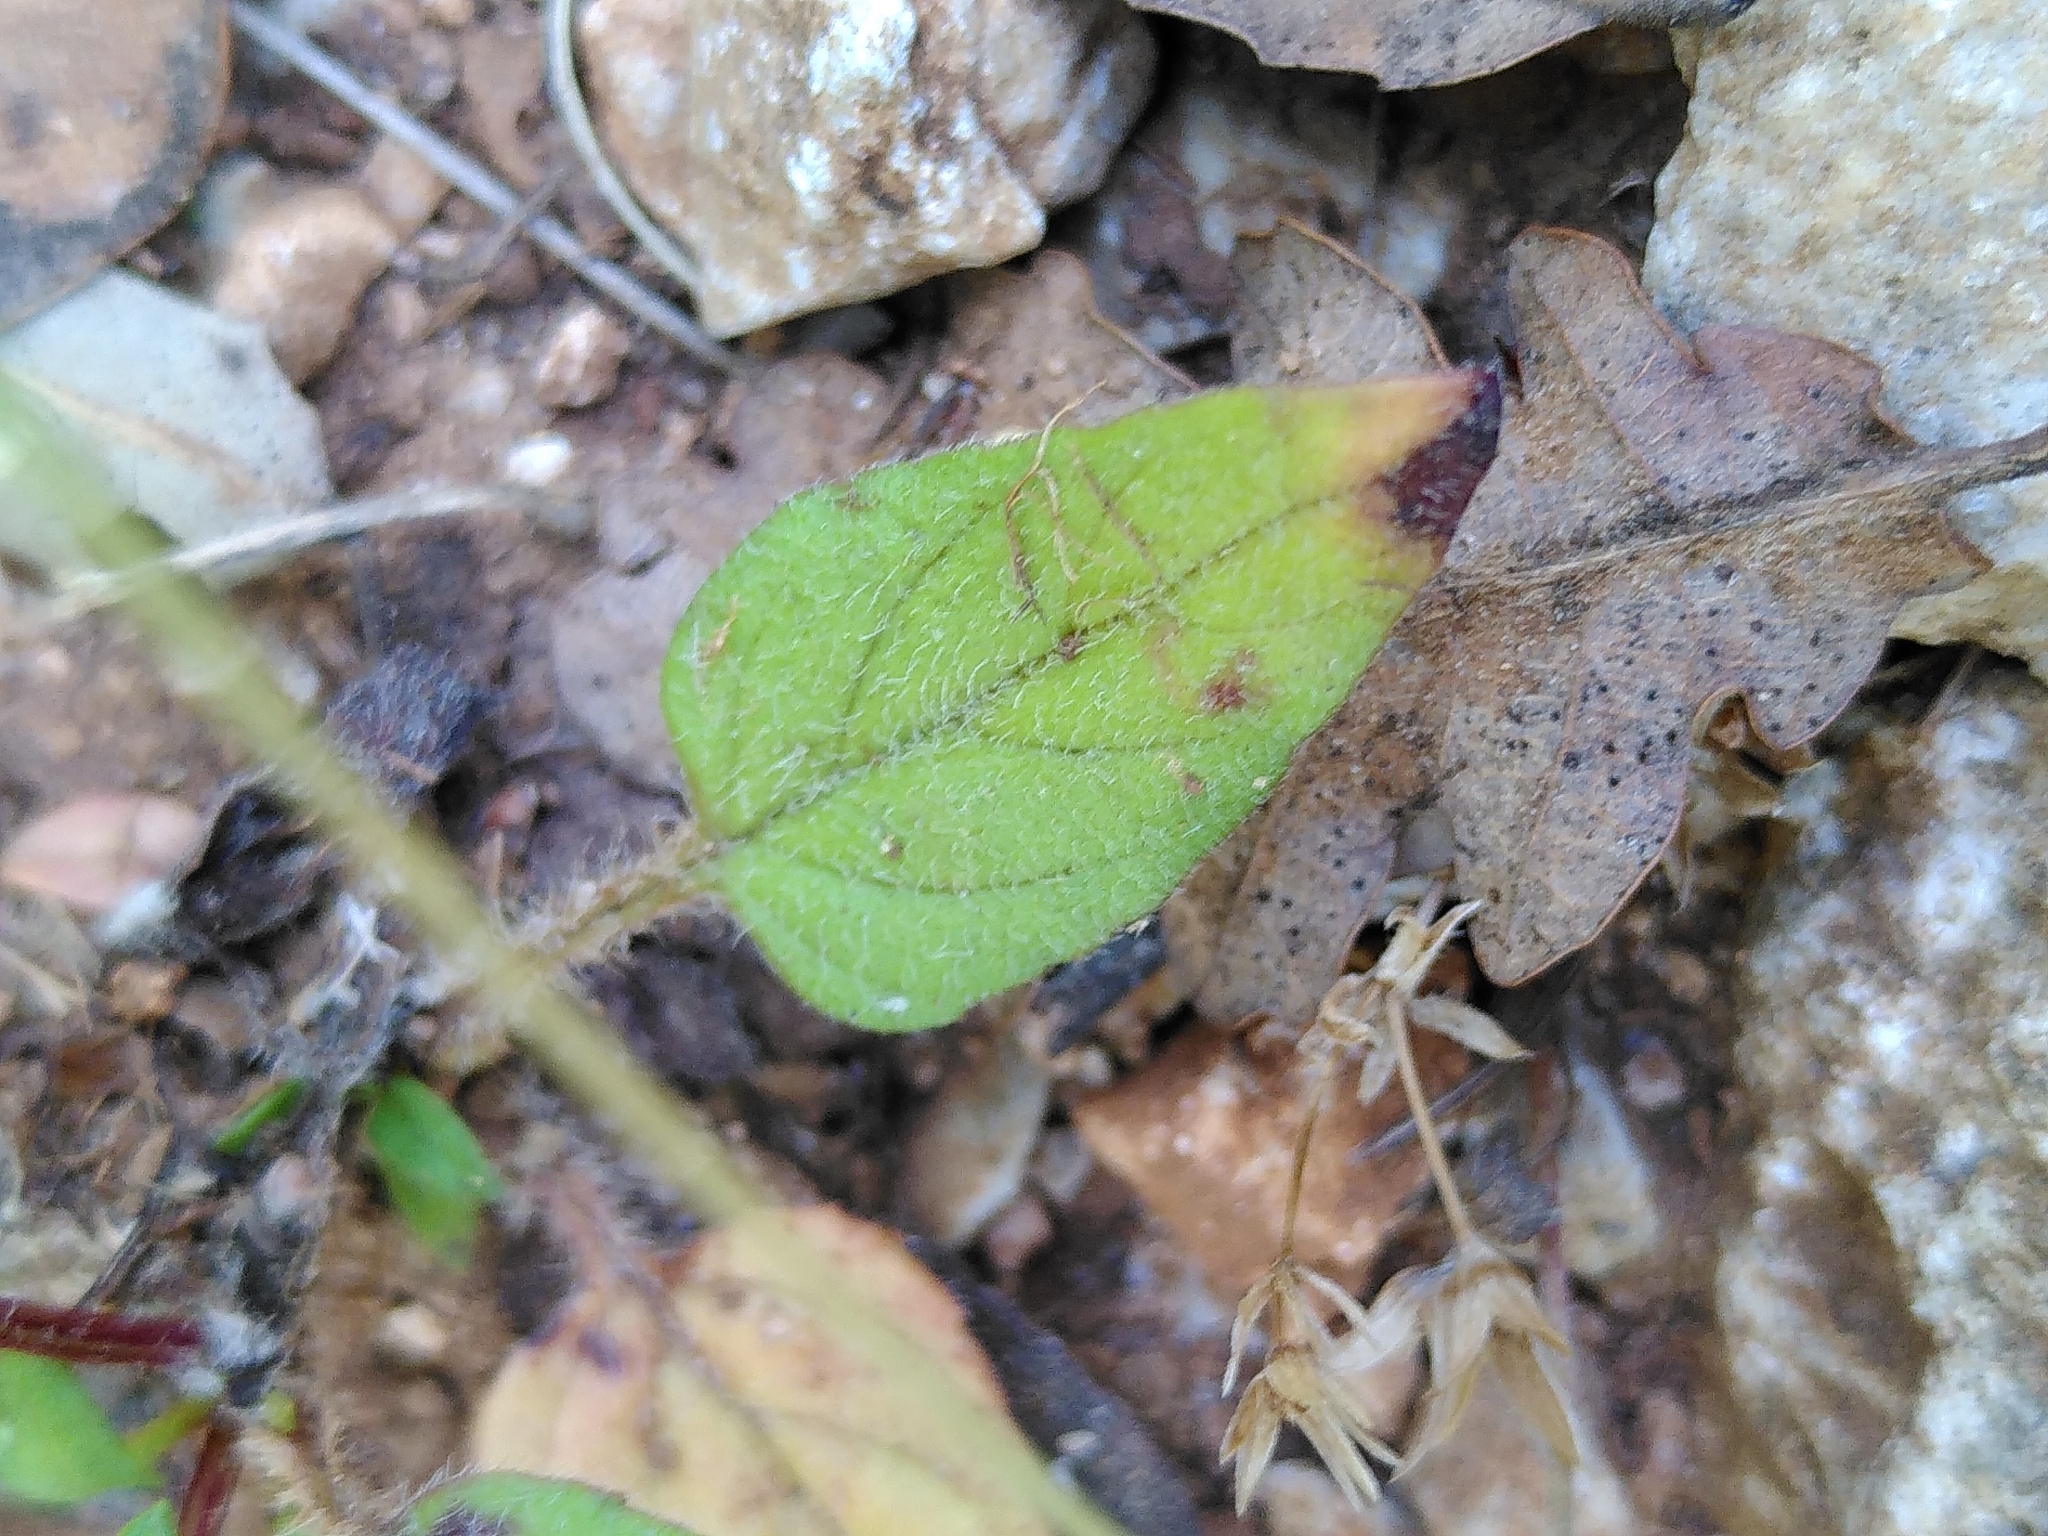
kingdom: Plantae
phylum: Tracheophyta
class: Magnoliopsida
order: Lamiales
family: Lamiaceae
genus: Prunella
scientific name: Prunella laciniata
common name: Cut-leaved selfheal
